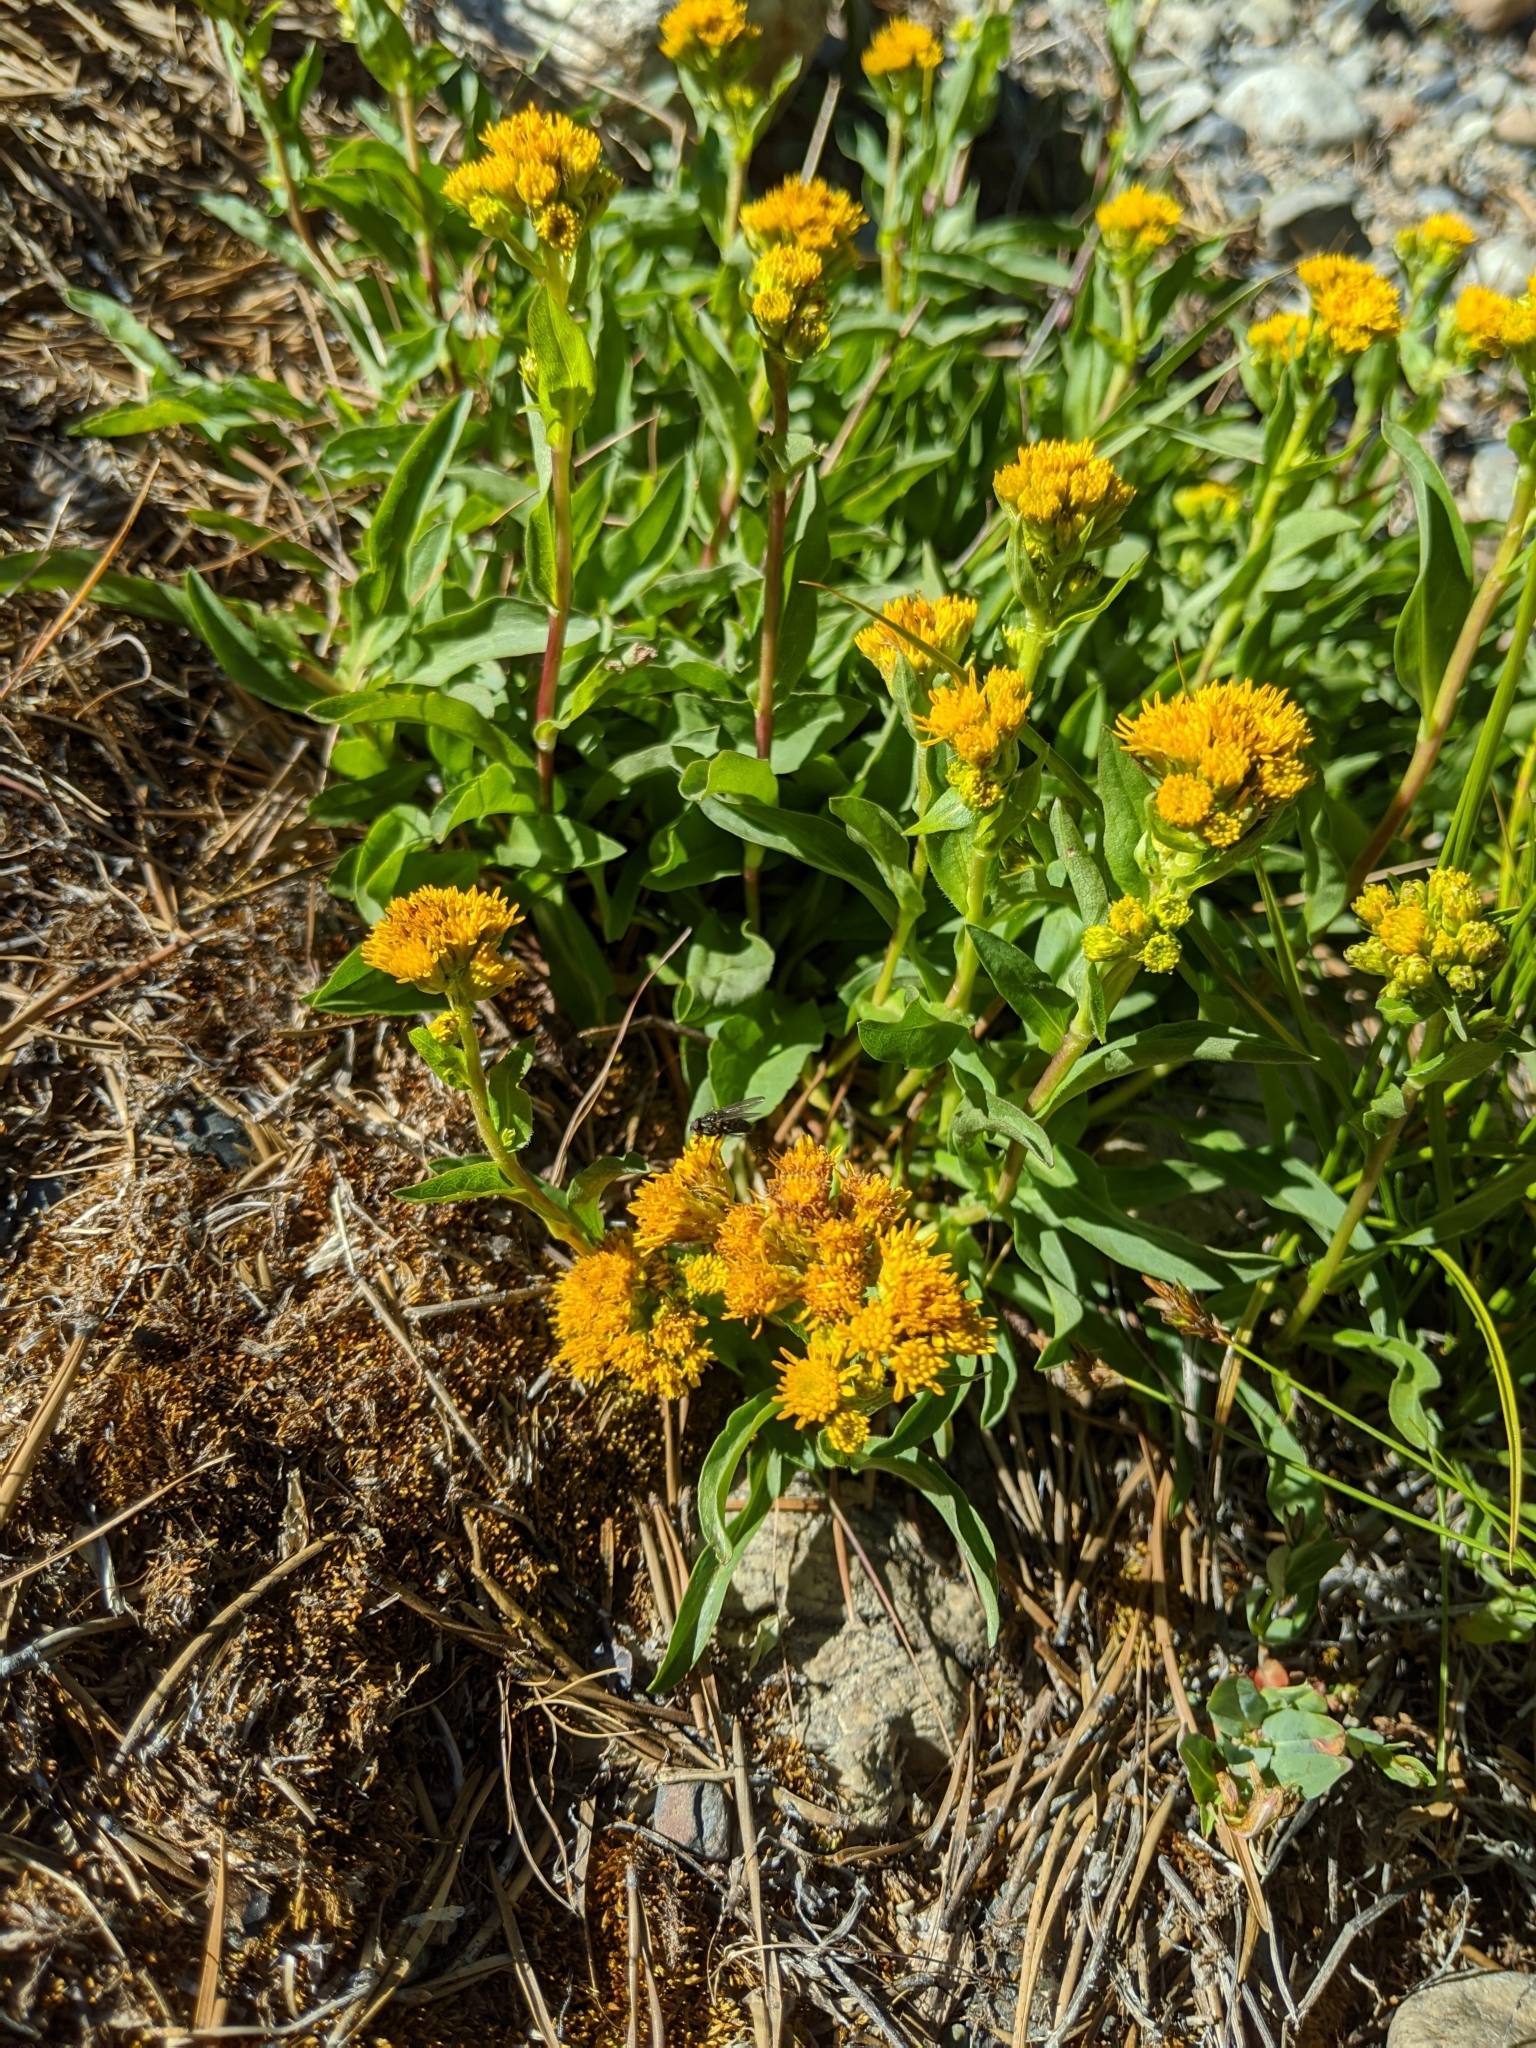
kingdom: Plantae
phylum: Tracheophyta
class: Magnoliopsida
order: Asterales
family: Asteraceae
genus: Solidago
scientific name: Solidago multiradiata
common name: Northern goldenrod
